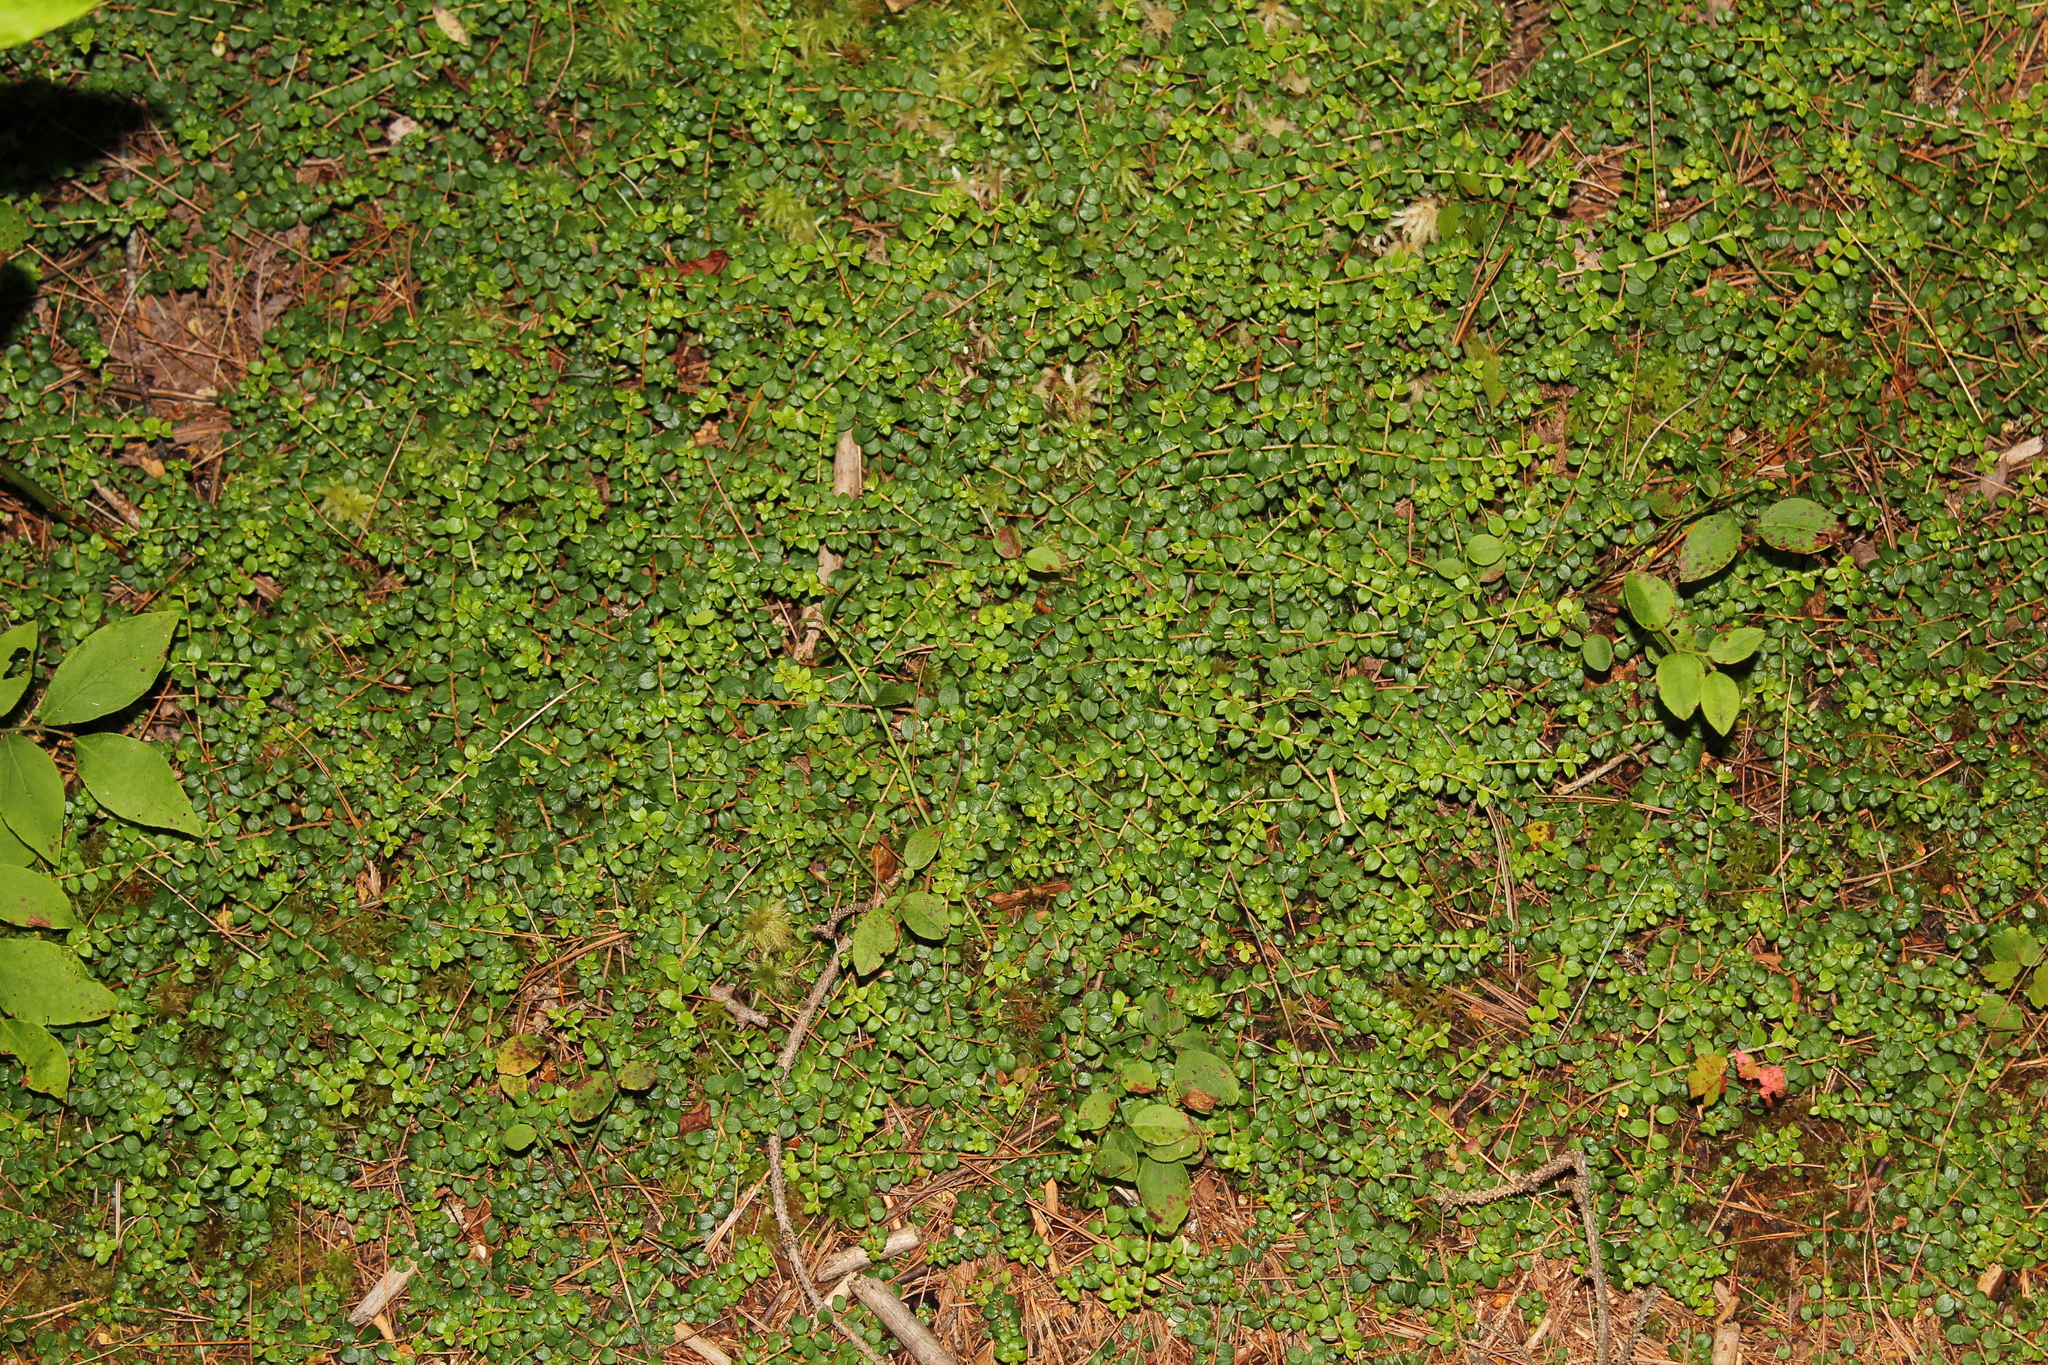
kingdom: Plantae
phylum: Tracheophyta
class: Magnoliopsida
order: Ericales
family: Ericaceae
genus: Gaultheria
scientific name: Gaultheria hispidula
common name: Cancer wintergreen
